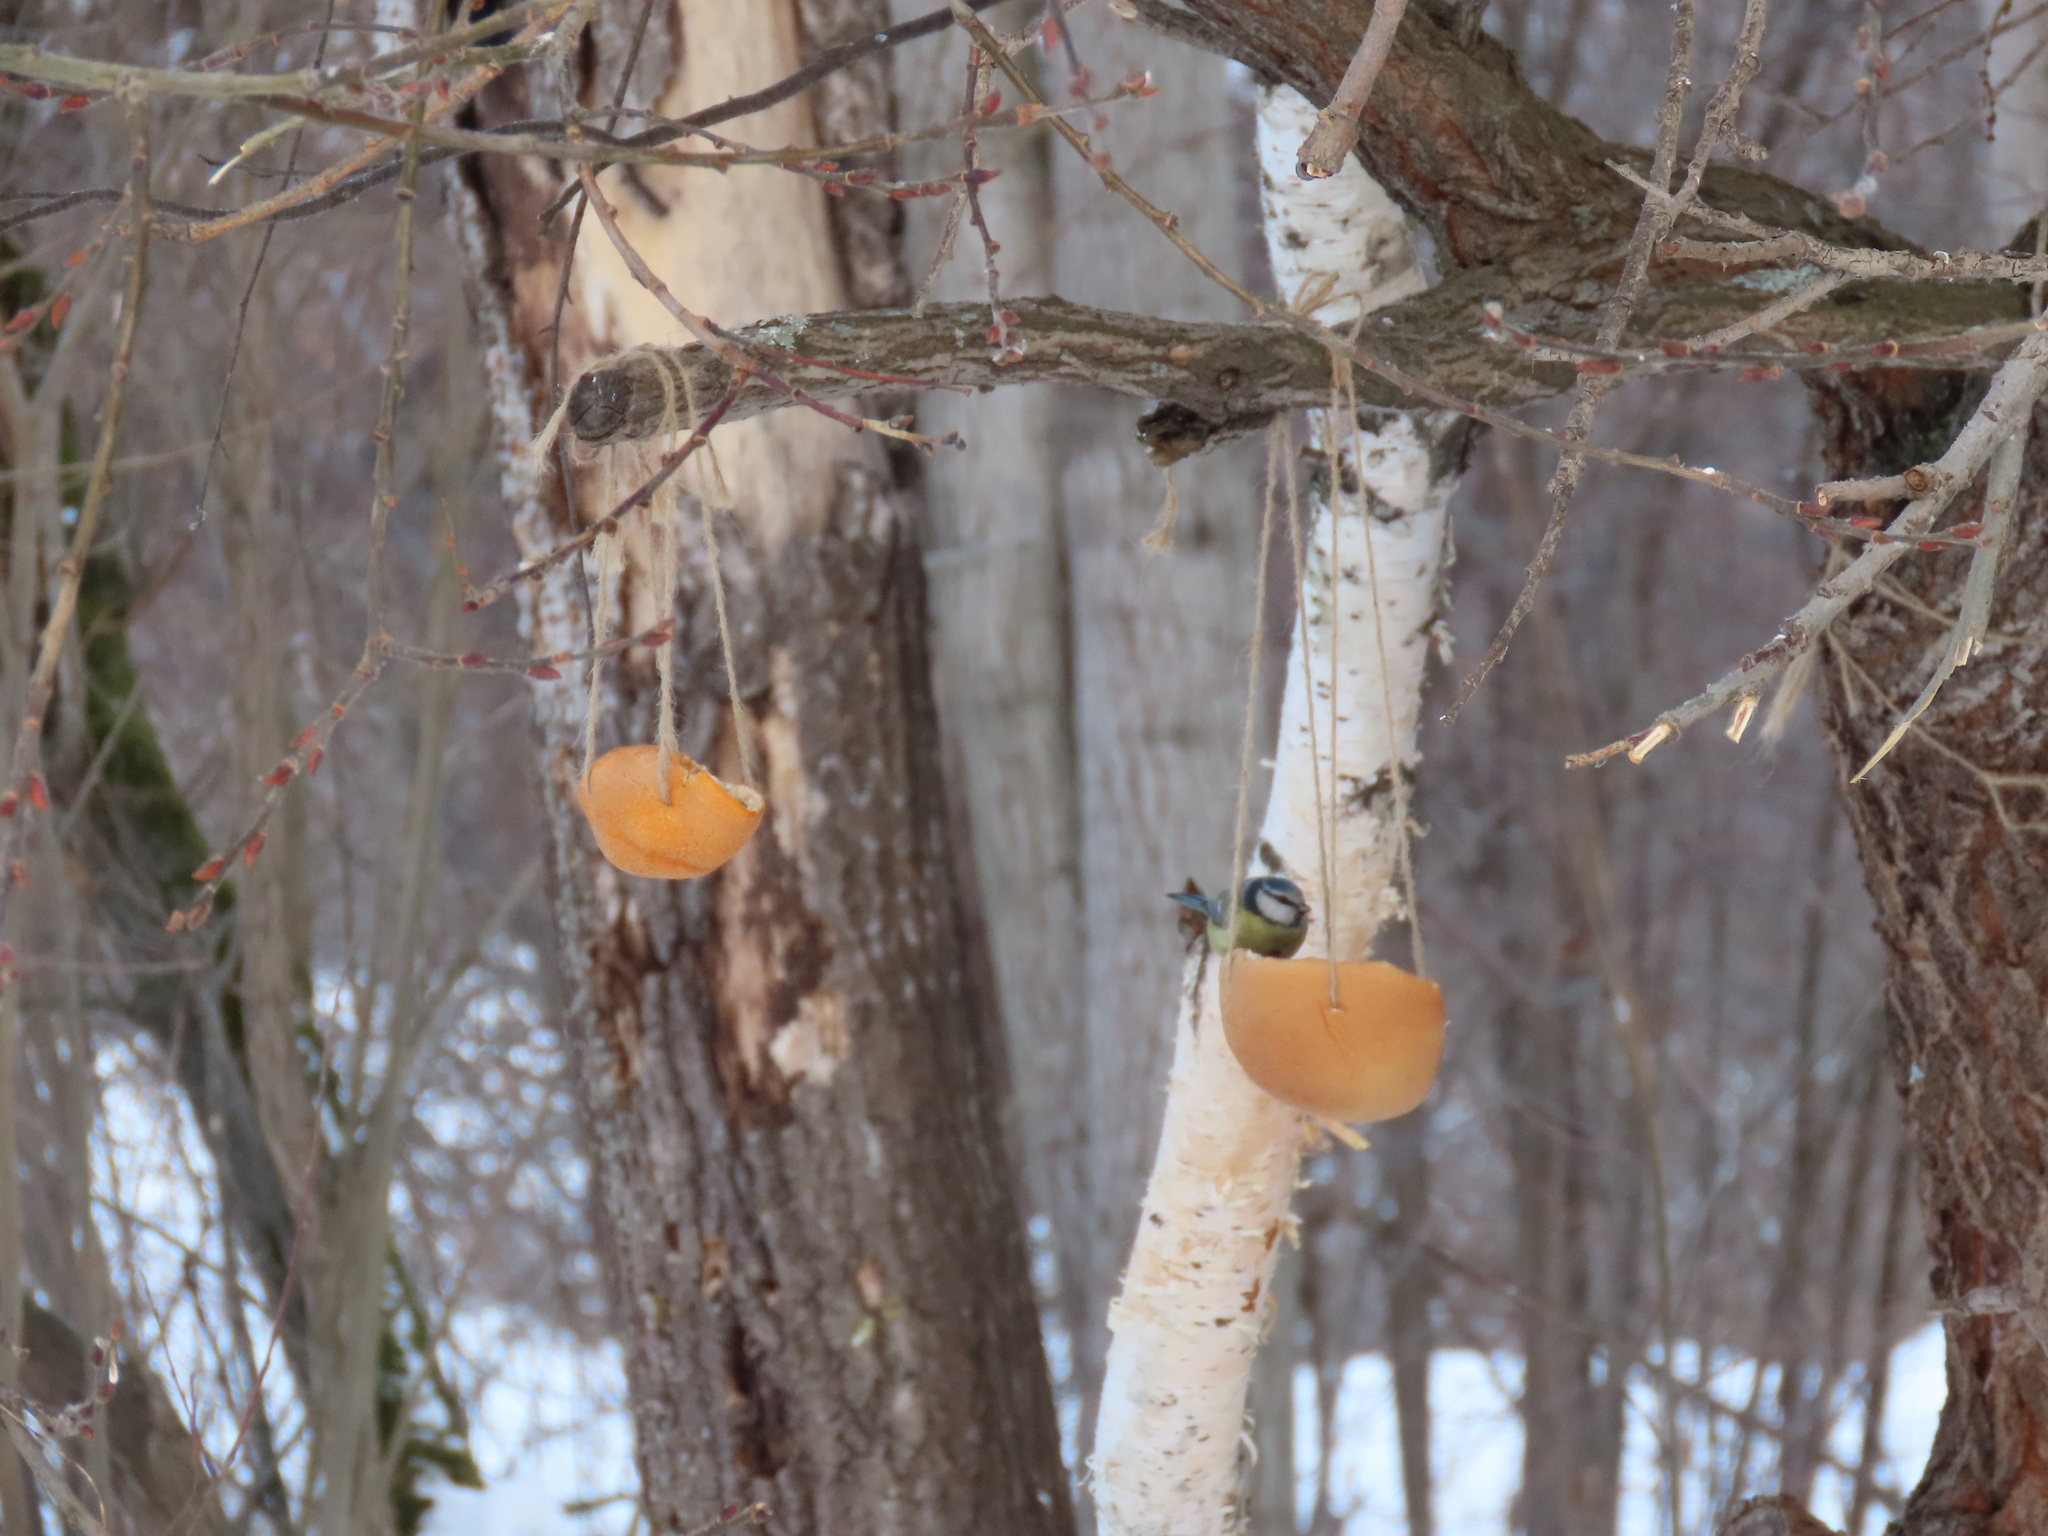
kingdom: Animalia
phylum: Chordata
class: Aves
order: Passeriformes
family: Paridae
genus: Cyanistes
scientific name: Cyanistes caeruleus
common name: Eurasian blue tit
